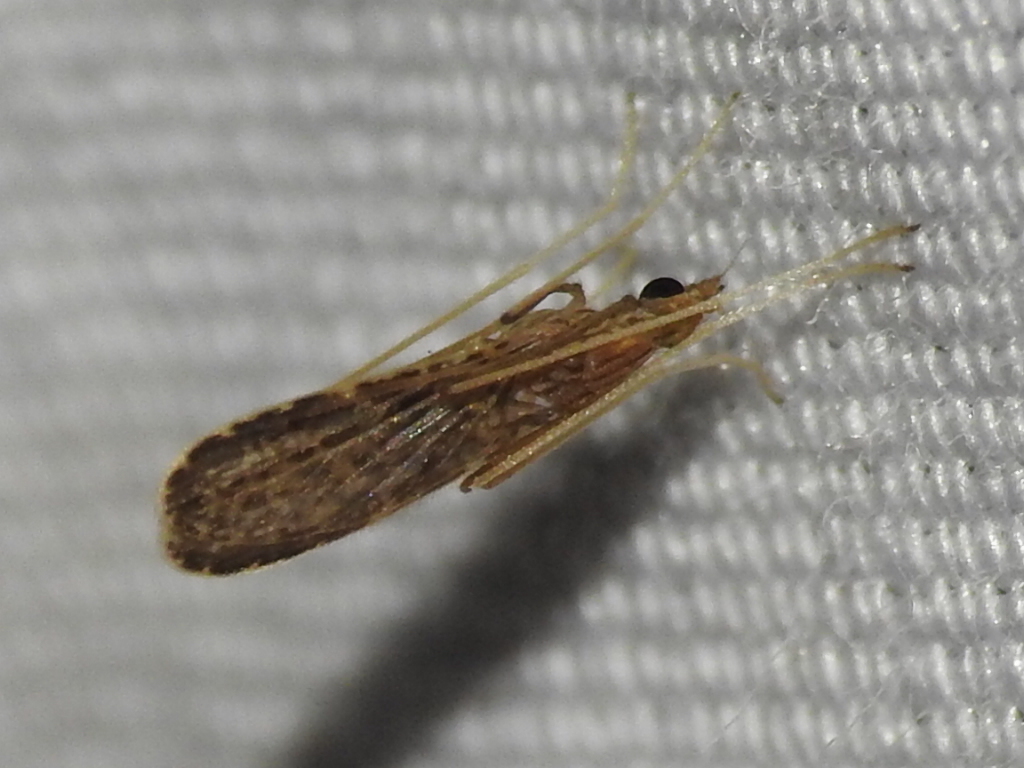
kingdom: Animalia
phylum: Arthropoda
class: Insecta
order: Diptera
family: Limoniidae
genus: Erioptera
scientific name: Erioptera tantilla
